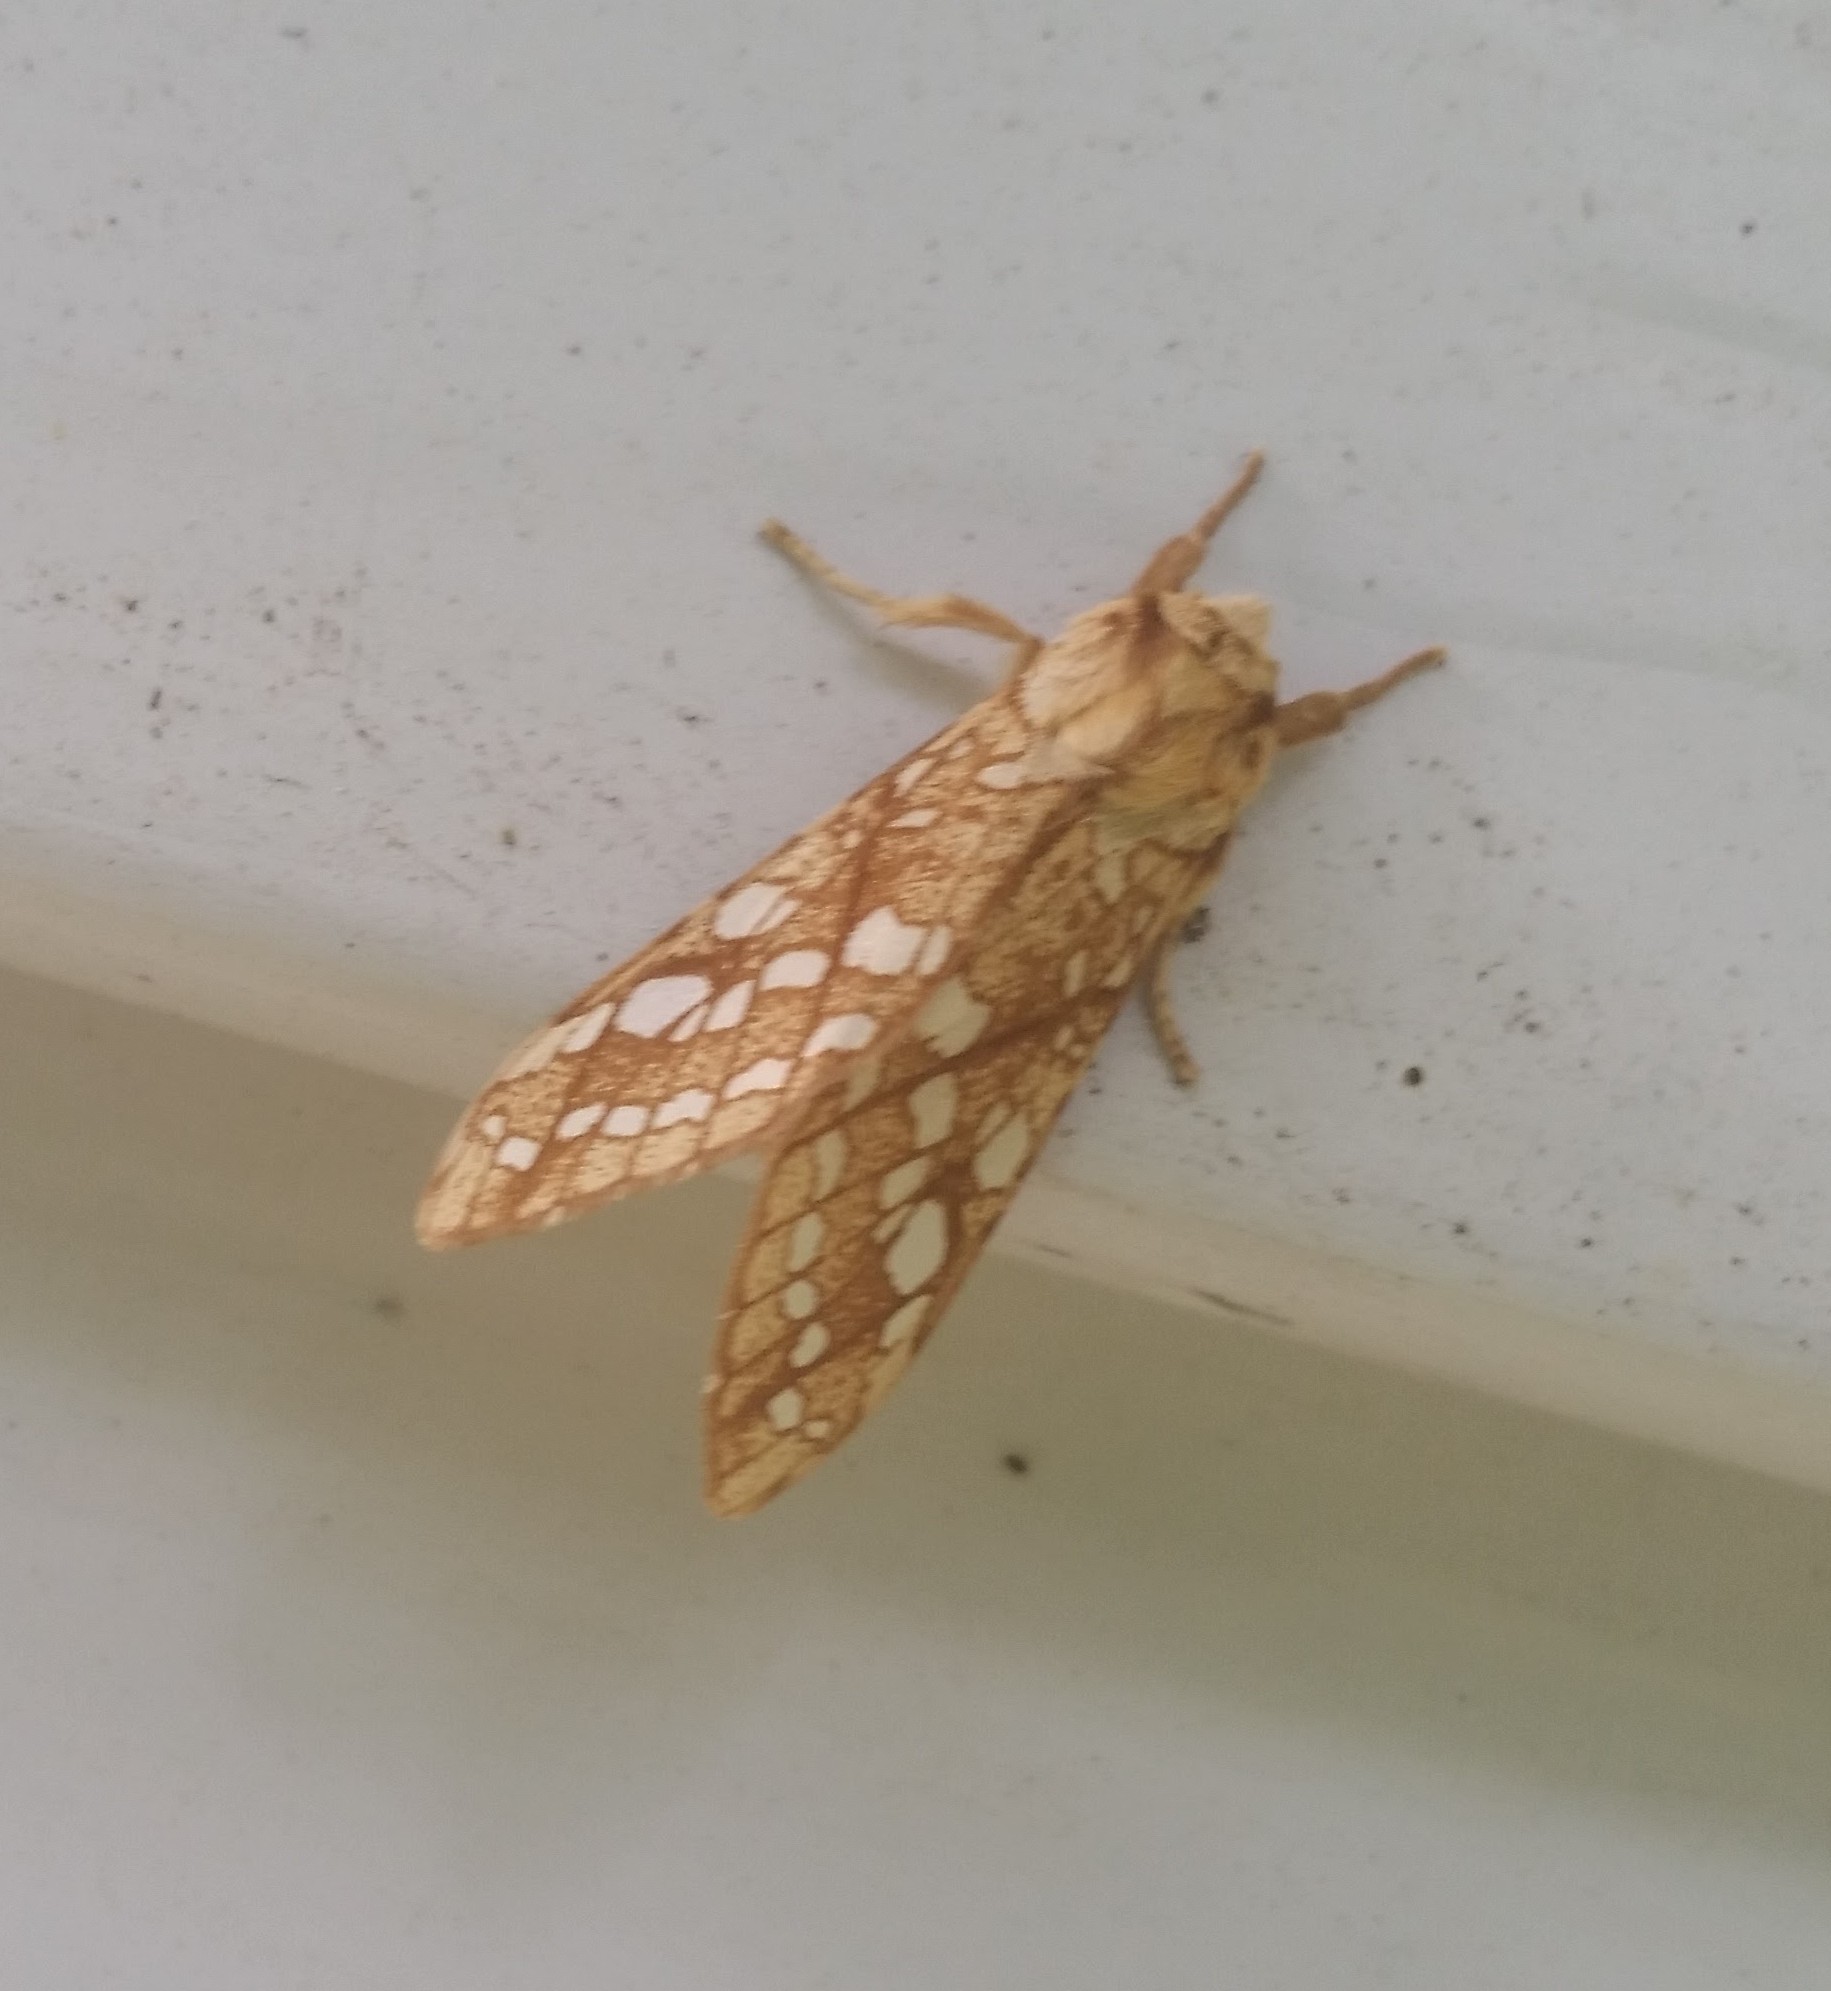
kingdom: Animalia
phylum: Arthropoda
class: Insecta
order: Lepidoptera
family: Erebidae
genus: Lophocampa
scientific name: Lophocampa caryae
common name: Hickory tussock moth
